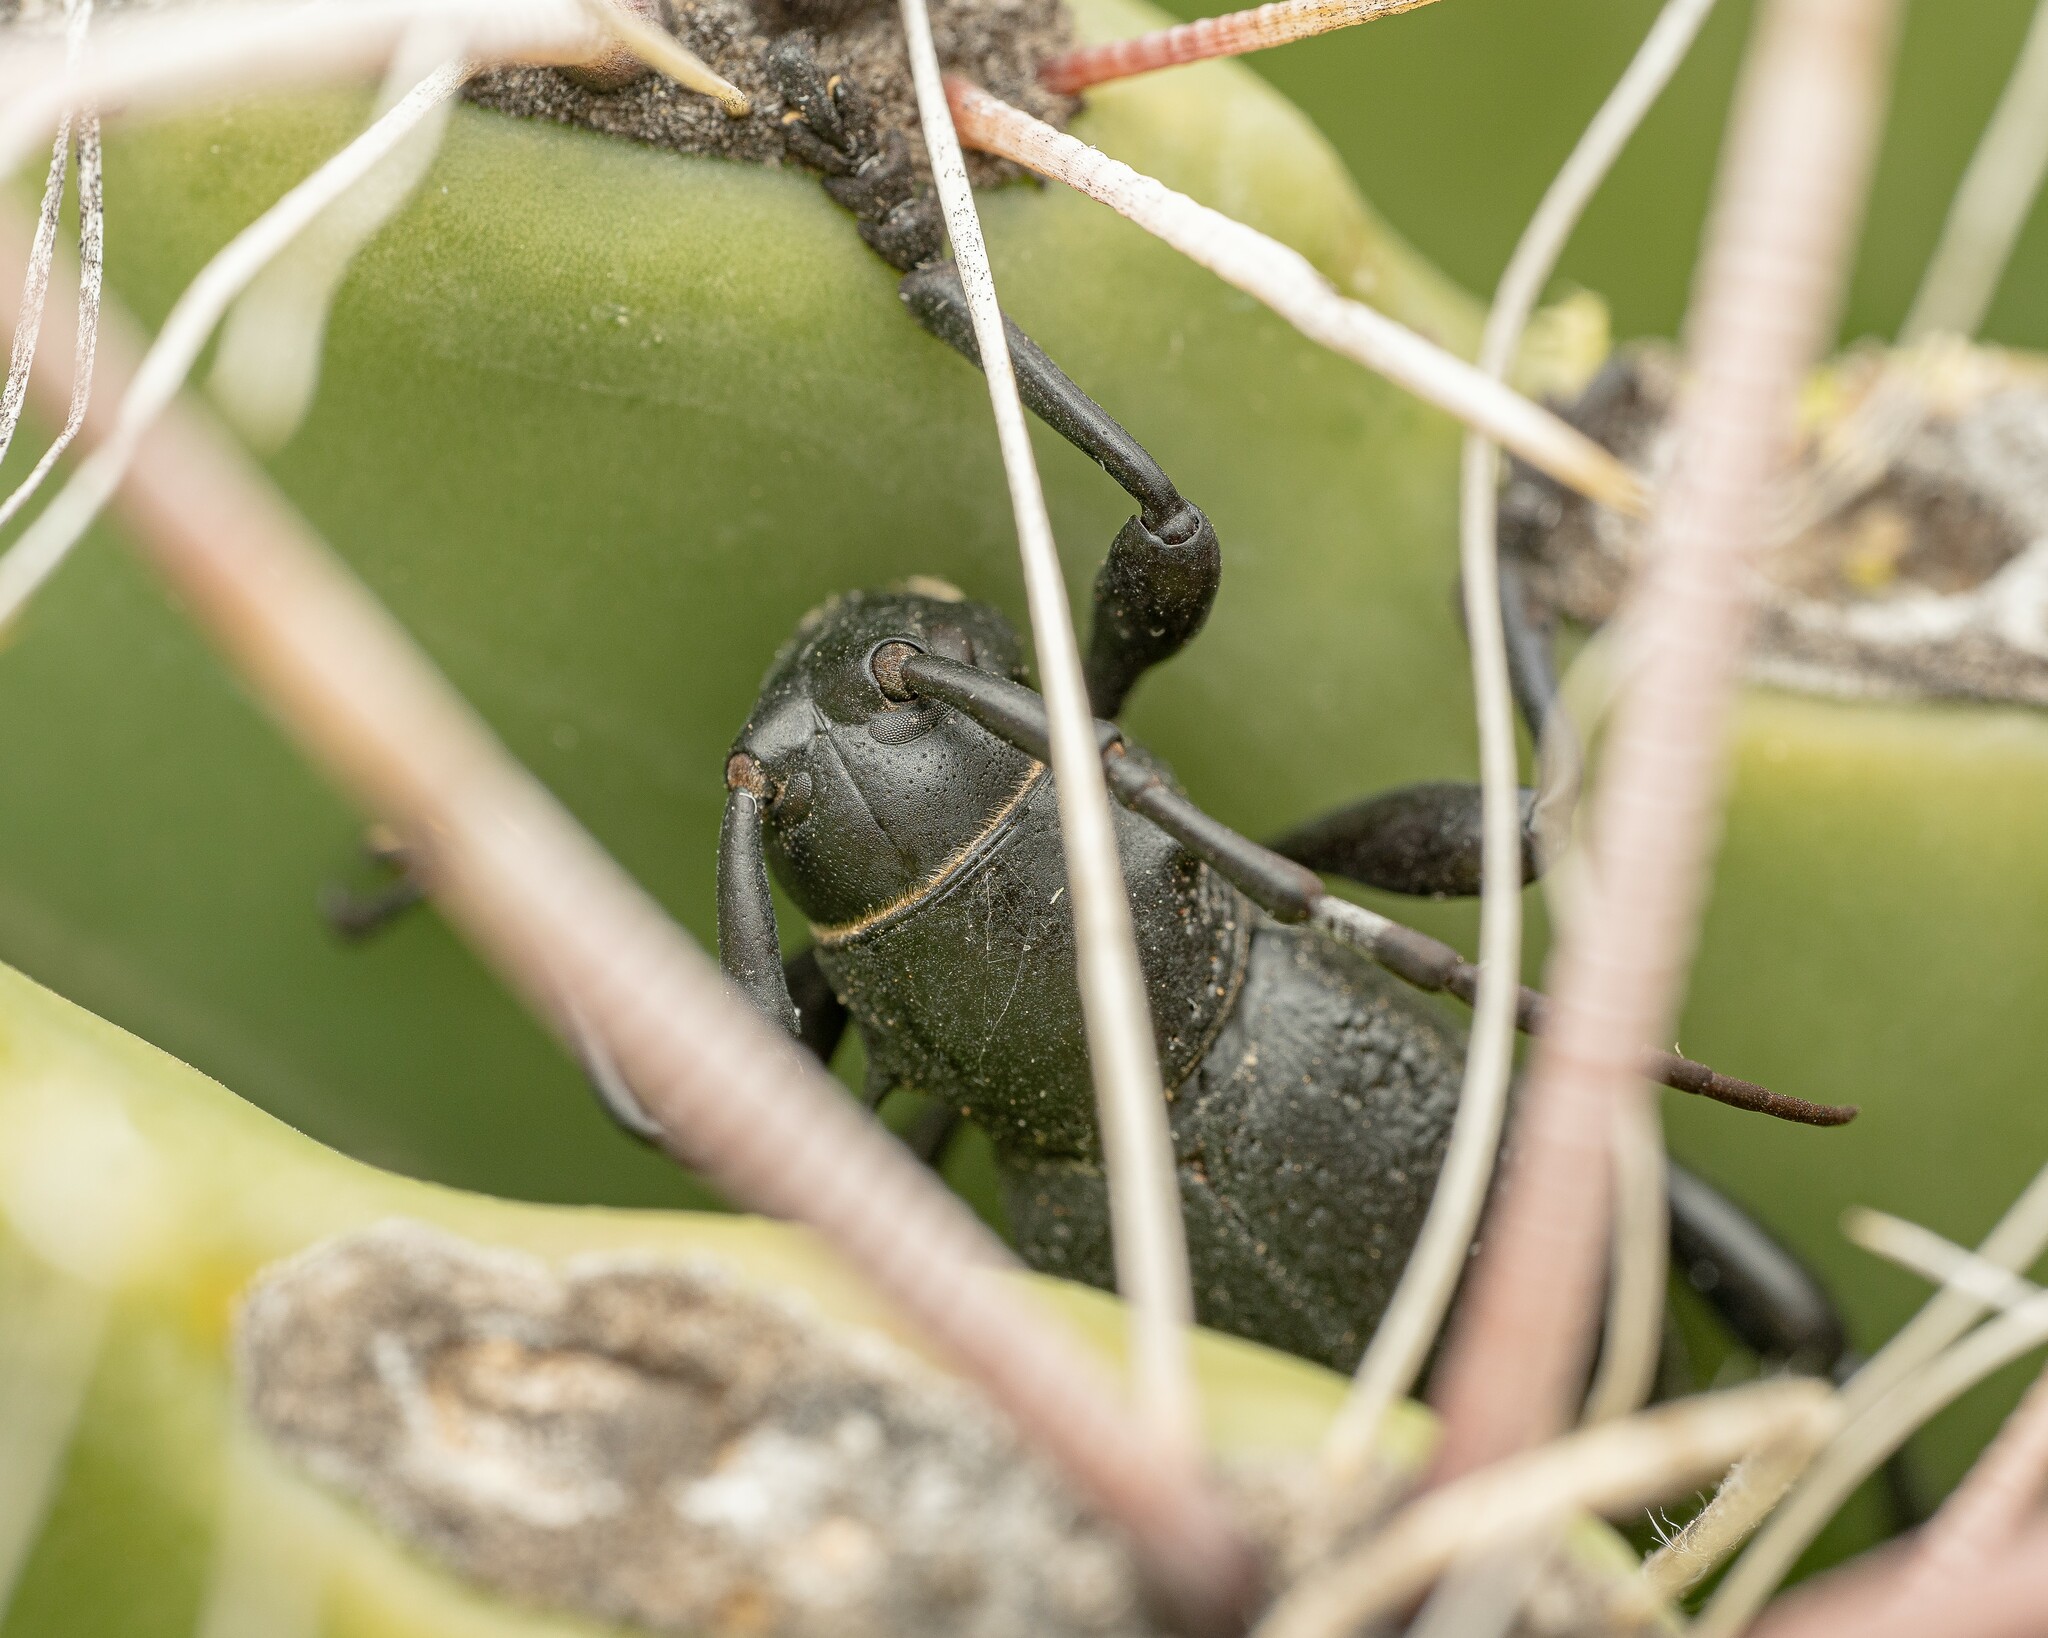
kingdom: Animalia
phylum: Arthropoda
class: Insecta
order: Coleoptera
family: Cerambycidae
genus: Moneilema
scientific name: Moneilema gigas
